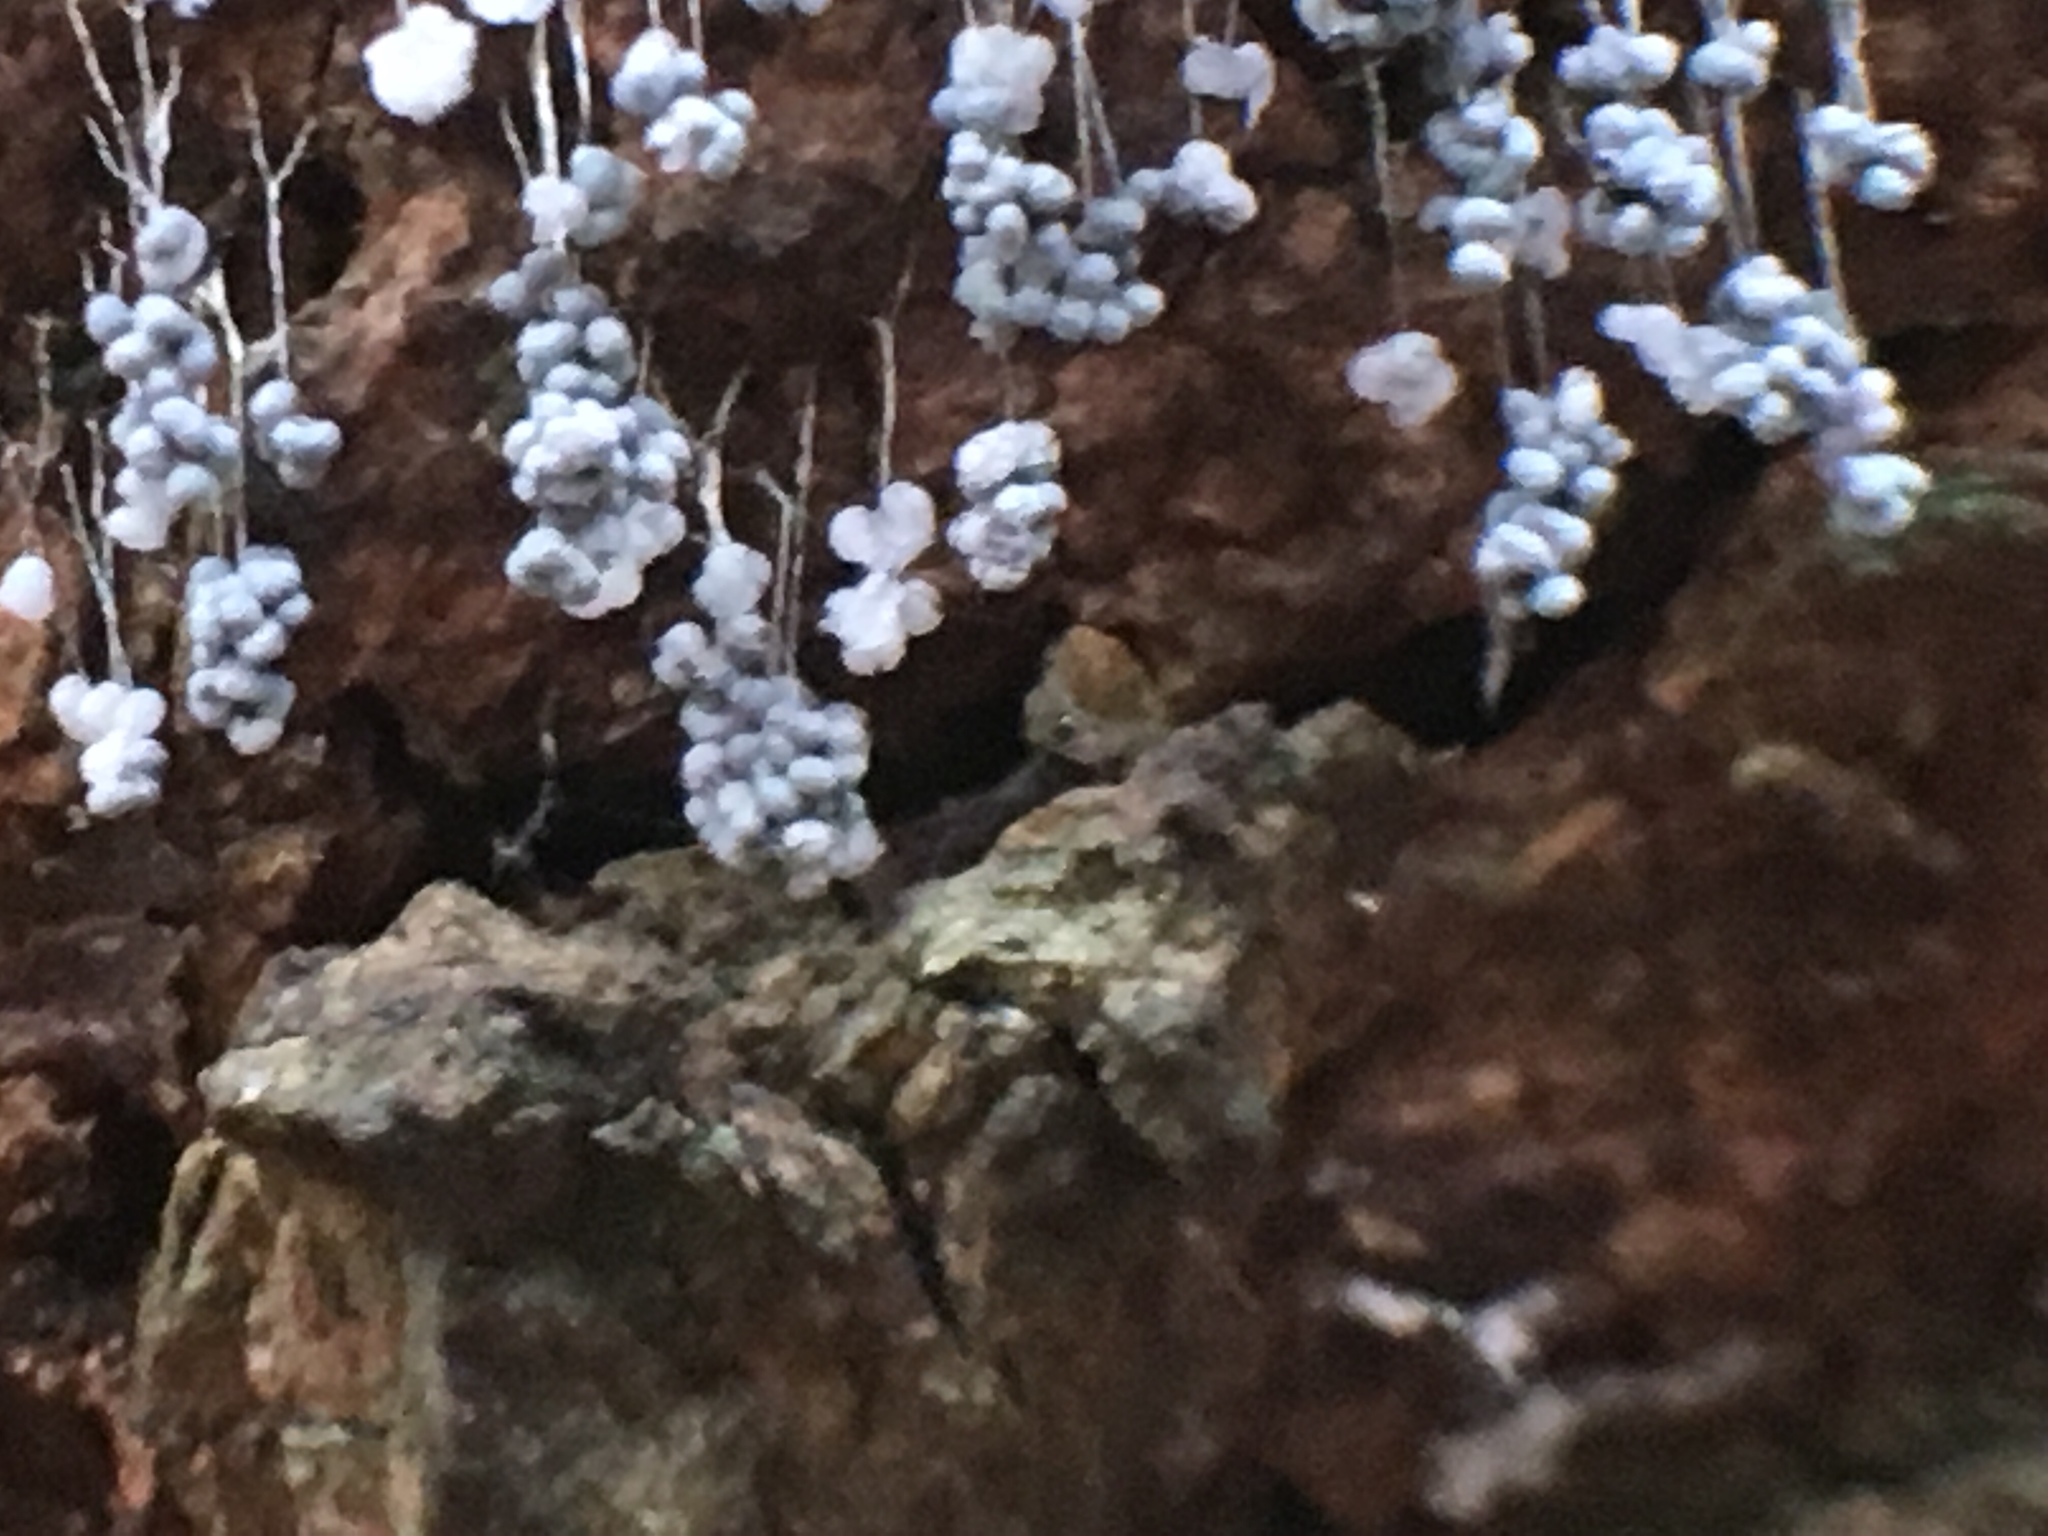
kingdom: Protozoa
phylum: Mycetozoa
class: Myxomycetes
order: Physarales
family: Physaraceae
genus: Badhamia
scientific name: Badhamia utricularis
